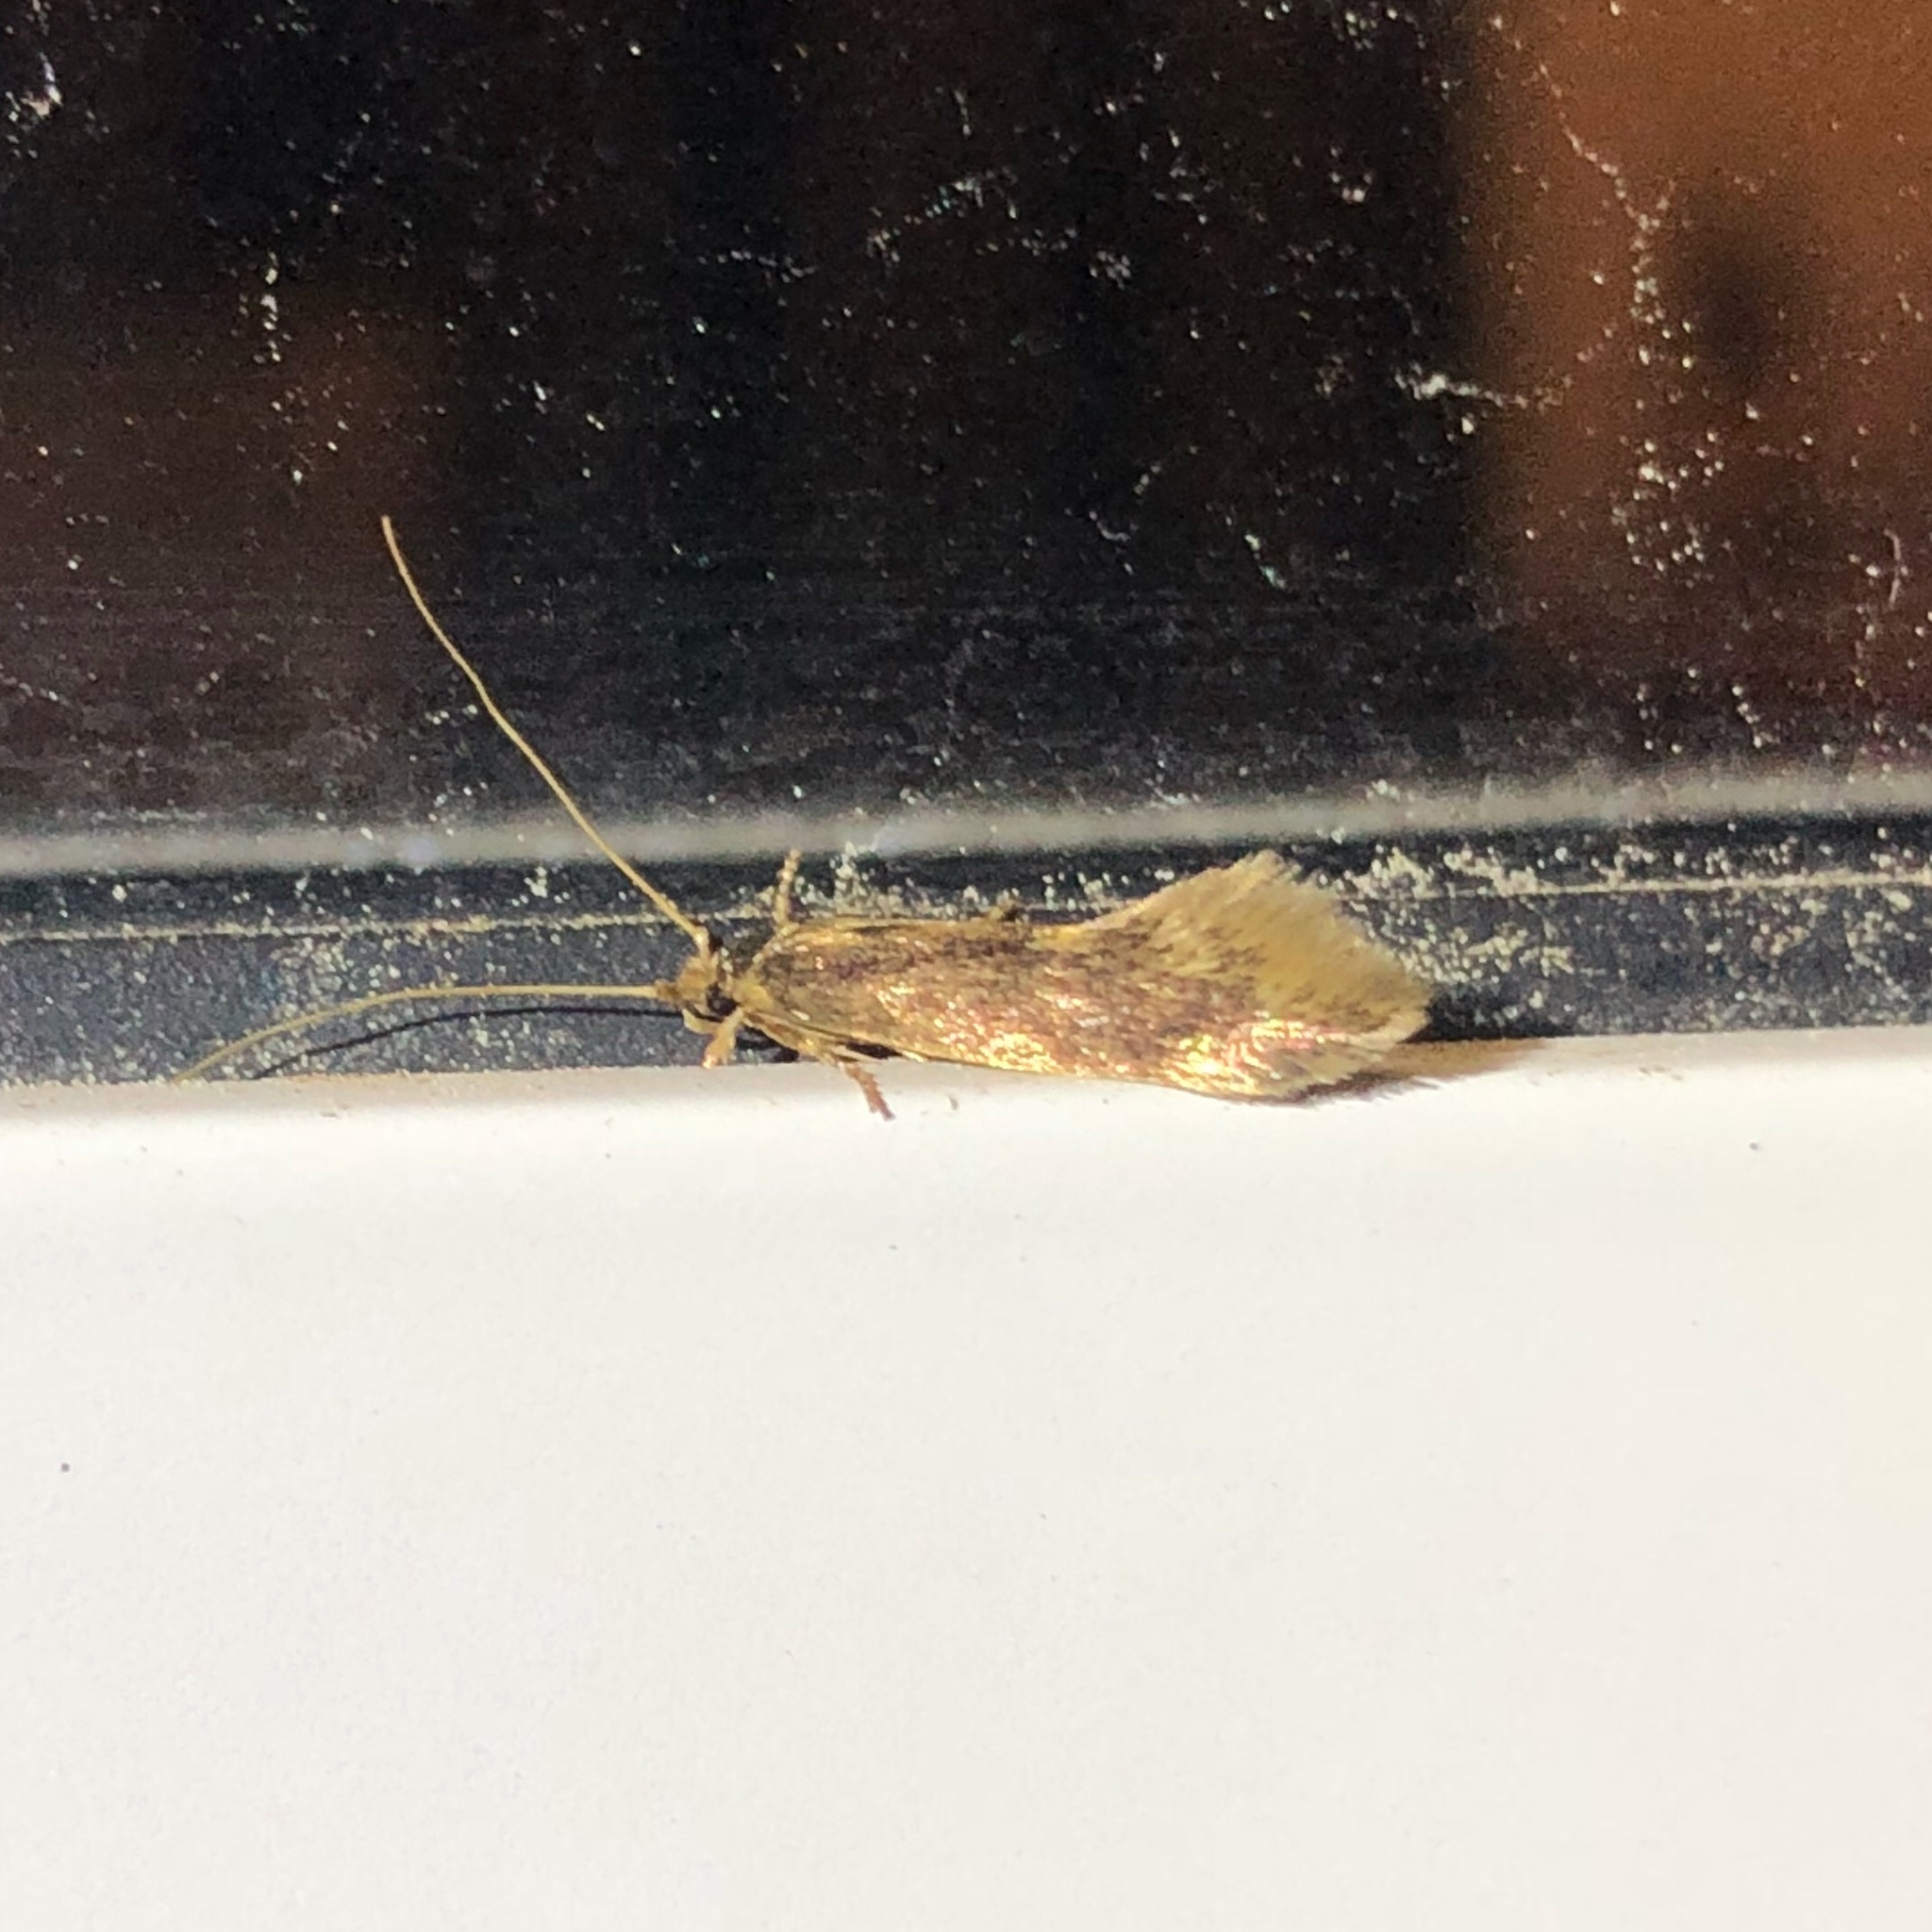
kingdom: Animalia
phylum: Arthropoda
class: Insecta
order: Lepidoptera
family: Tineidae
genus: Opogona
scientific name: Opogona omoscopa
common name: Moth
